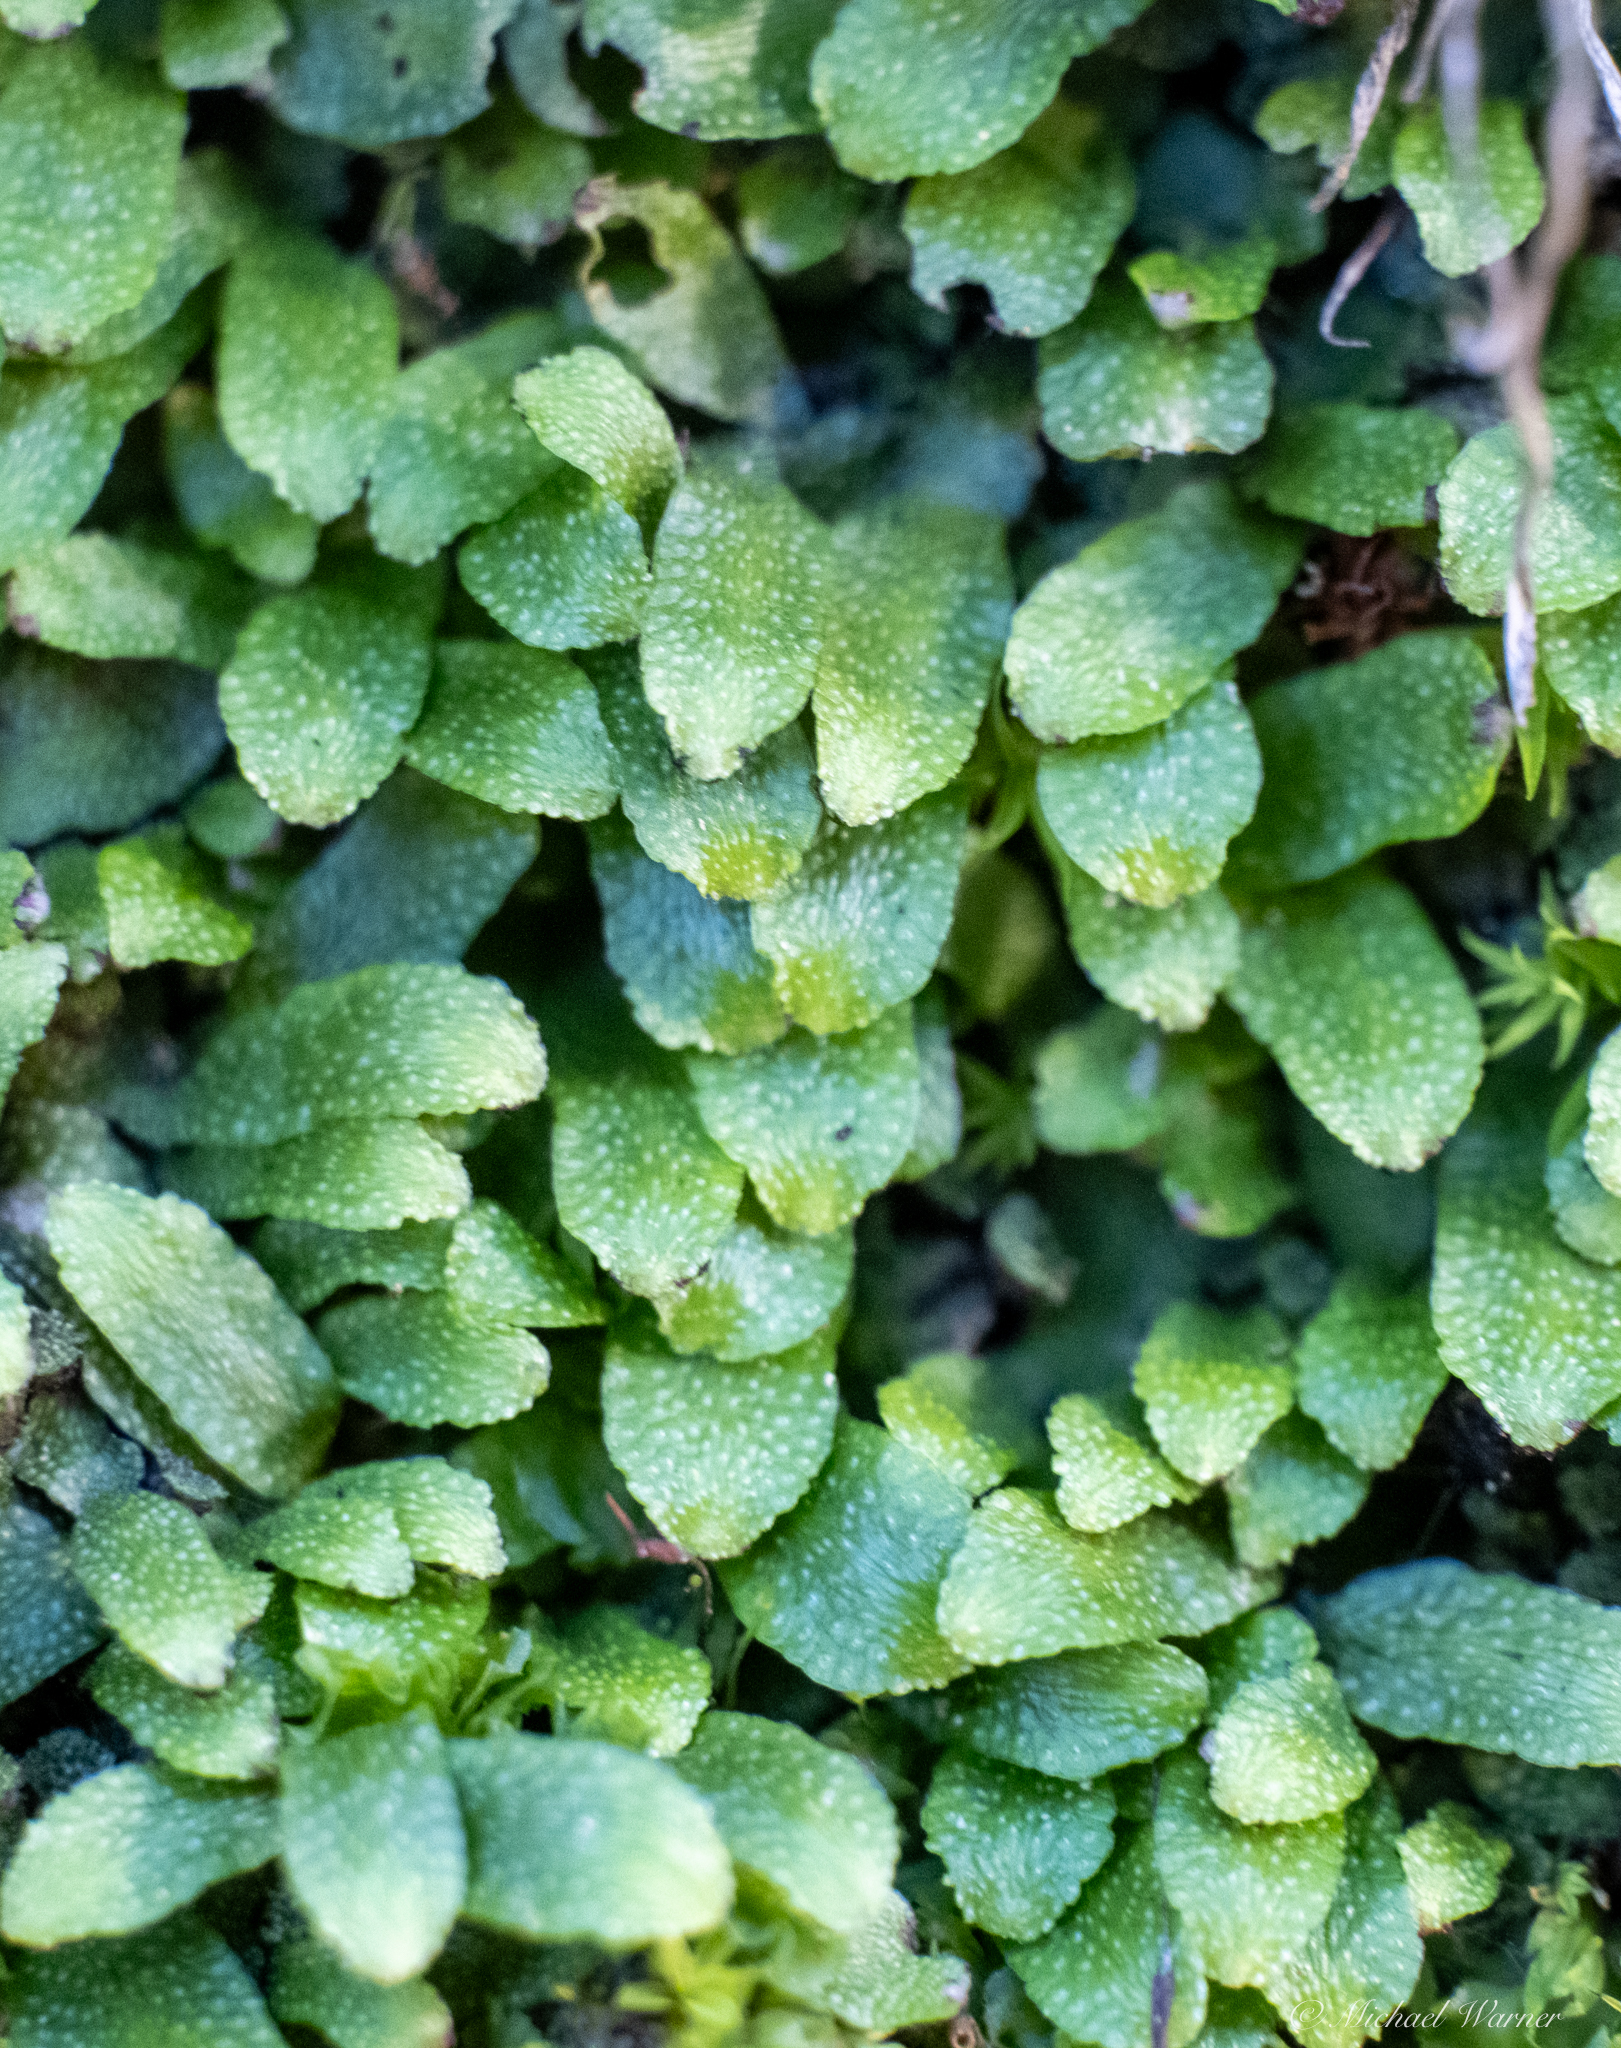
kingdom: Plantae
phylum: Marchantiophyta
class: Marchantiopsida
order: Marchantiales
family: Targioniaceae
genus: Targionia
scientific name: Targionia hypophylla
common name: Orobus-seed liverwort
